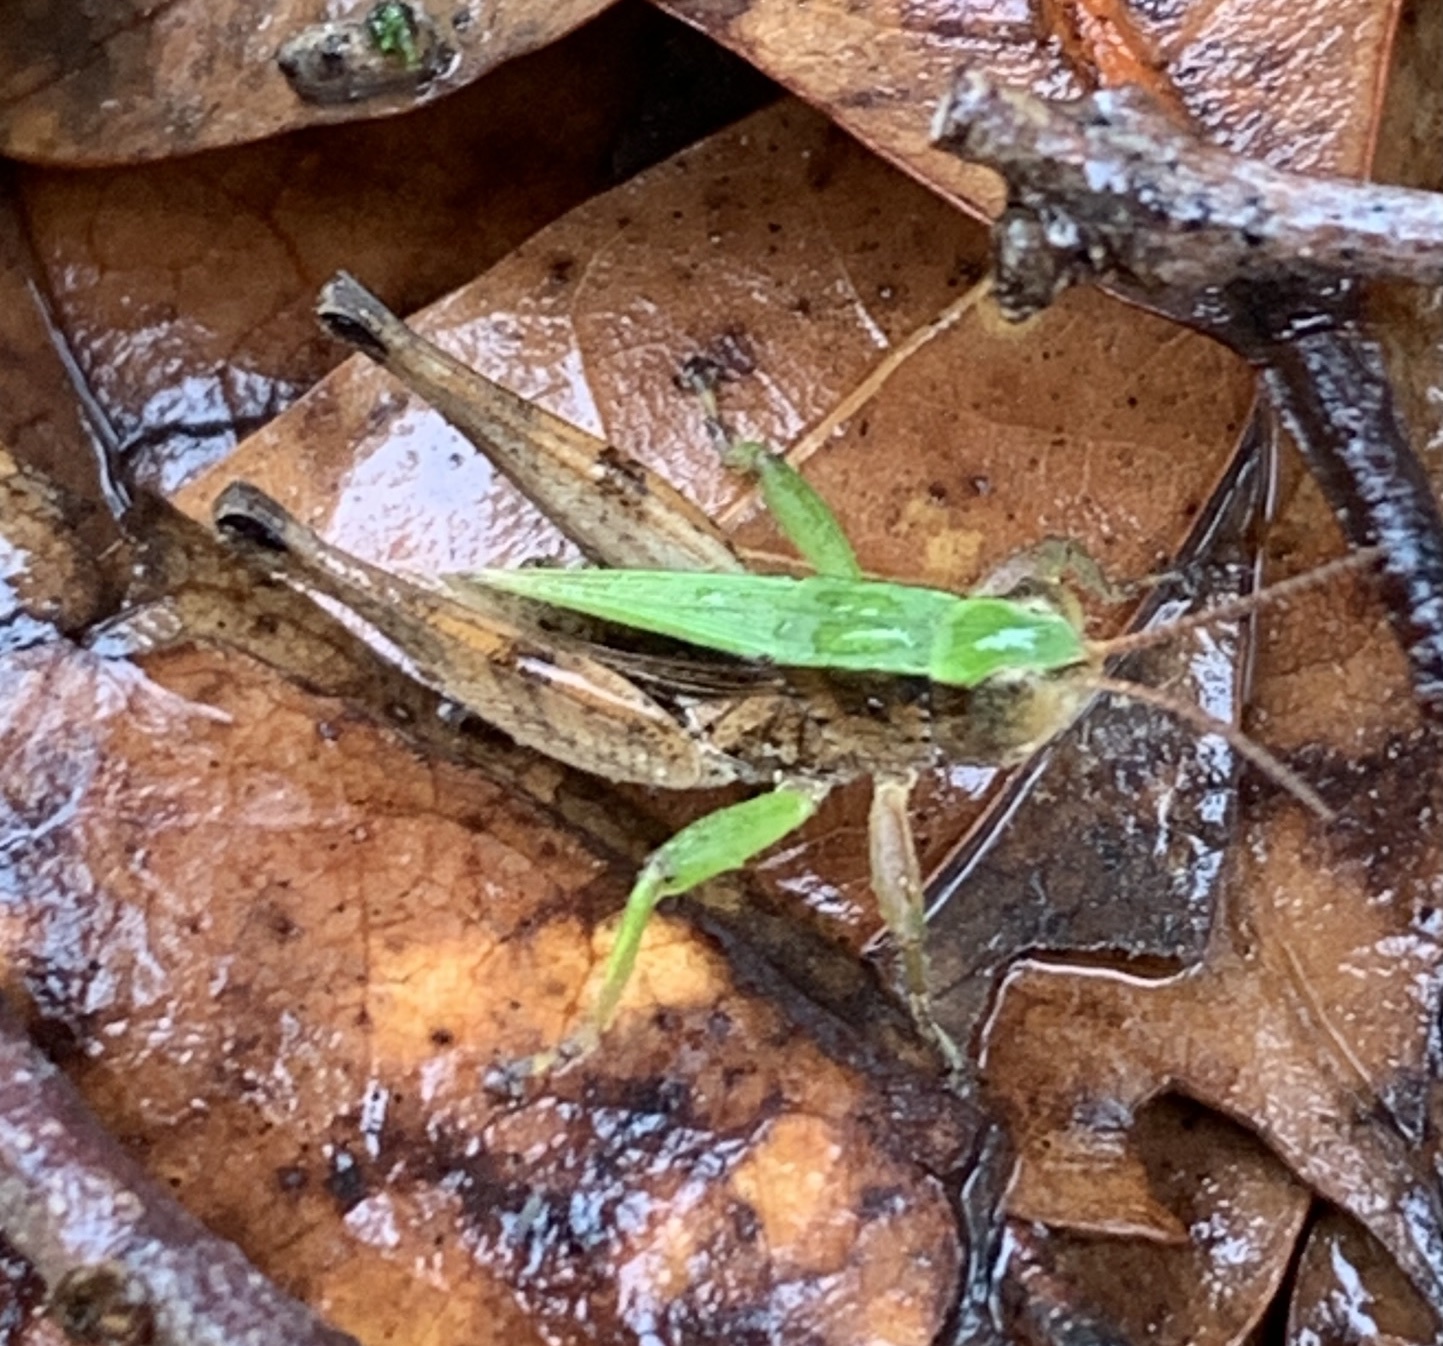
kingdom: Animalia
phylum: Arthropoda
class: Insecta
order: Orthoptera
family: Acrididae
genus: Dichromorpha
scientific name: Dichromorpha viridis
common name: Short-winged green grasshopper
